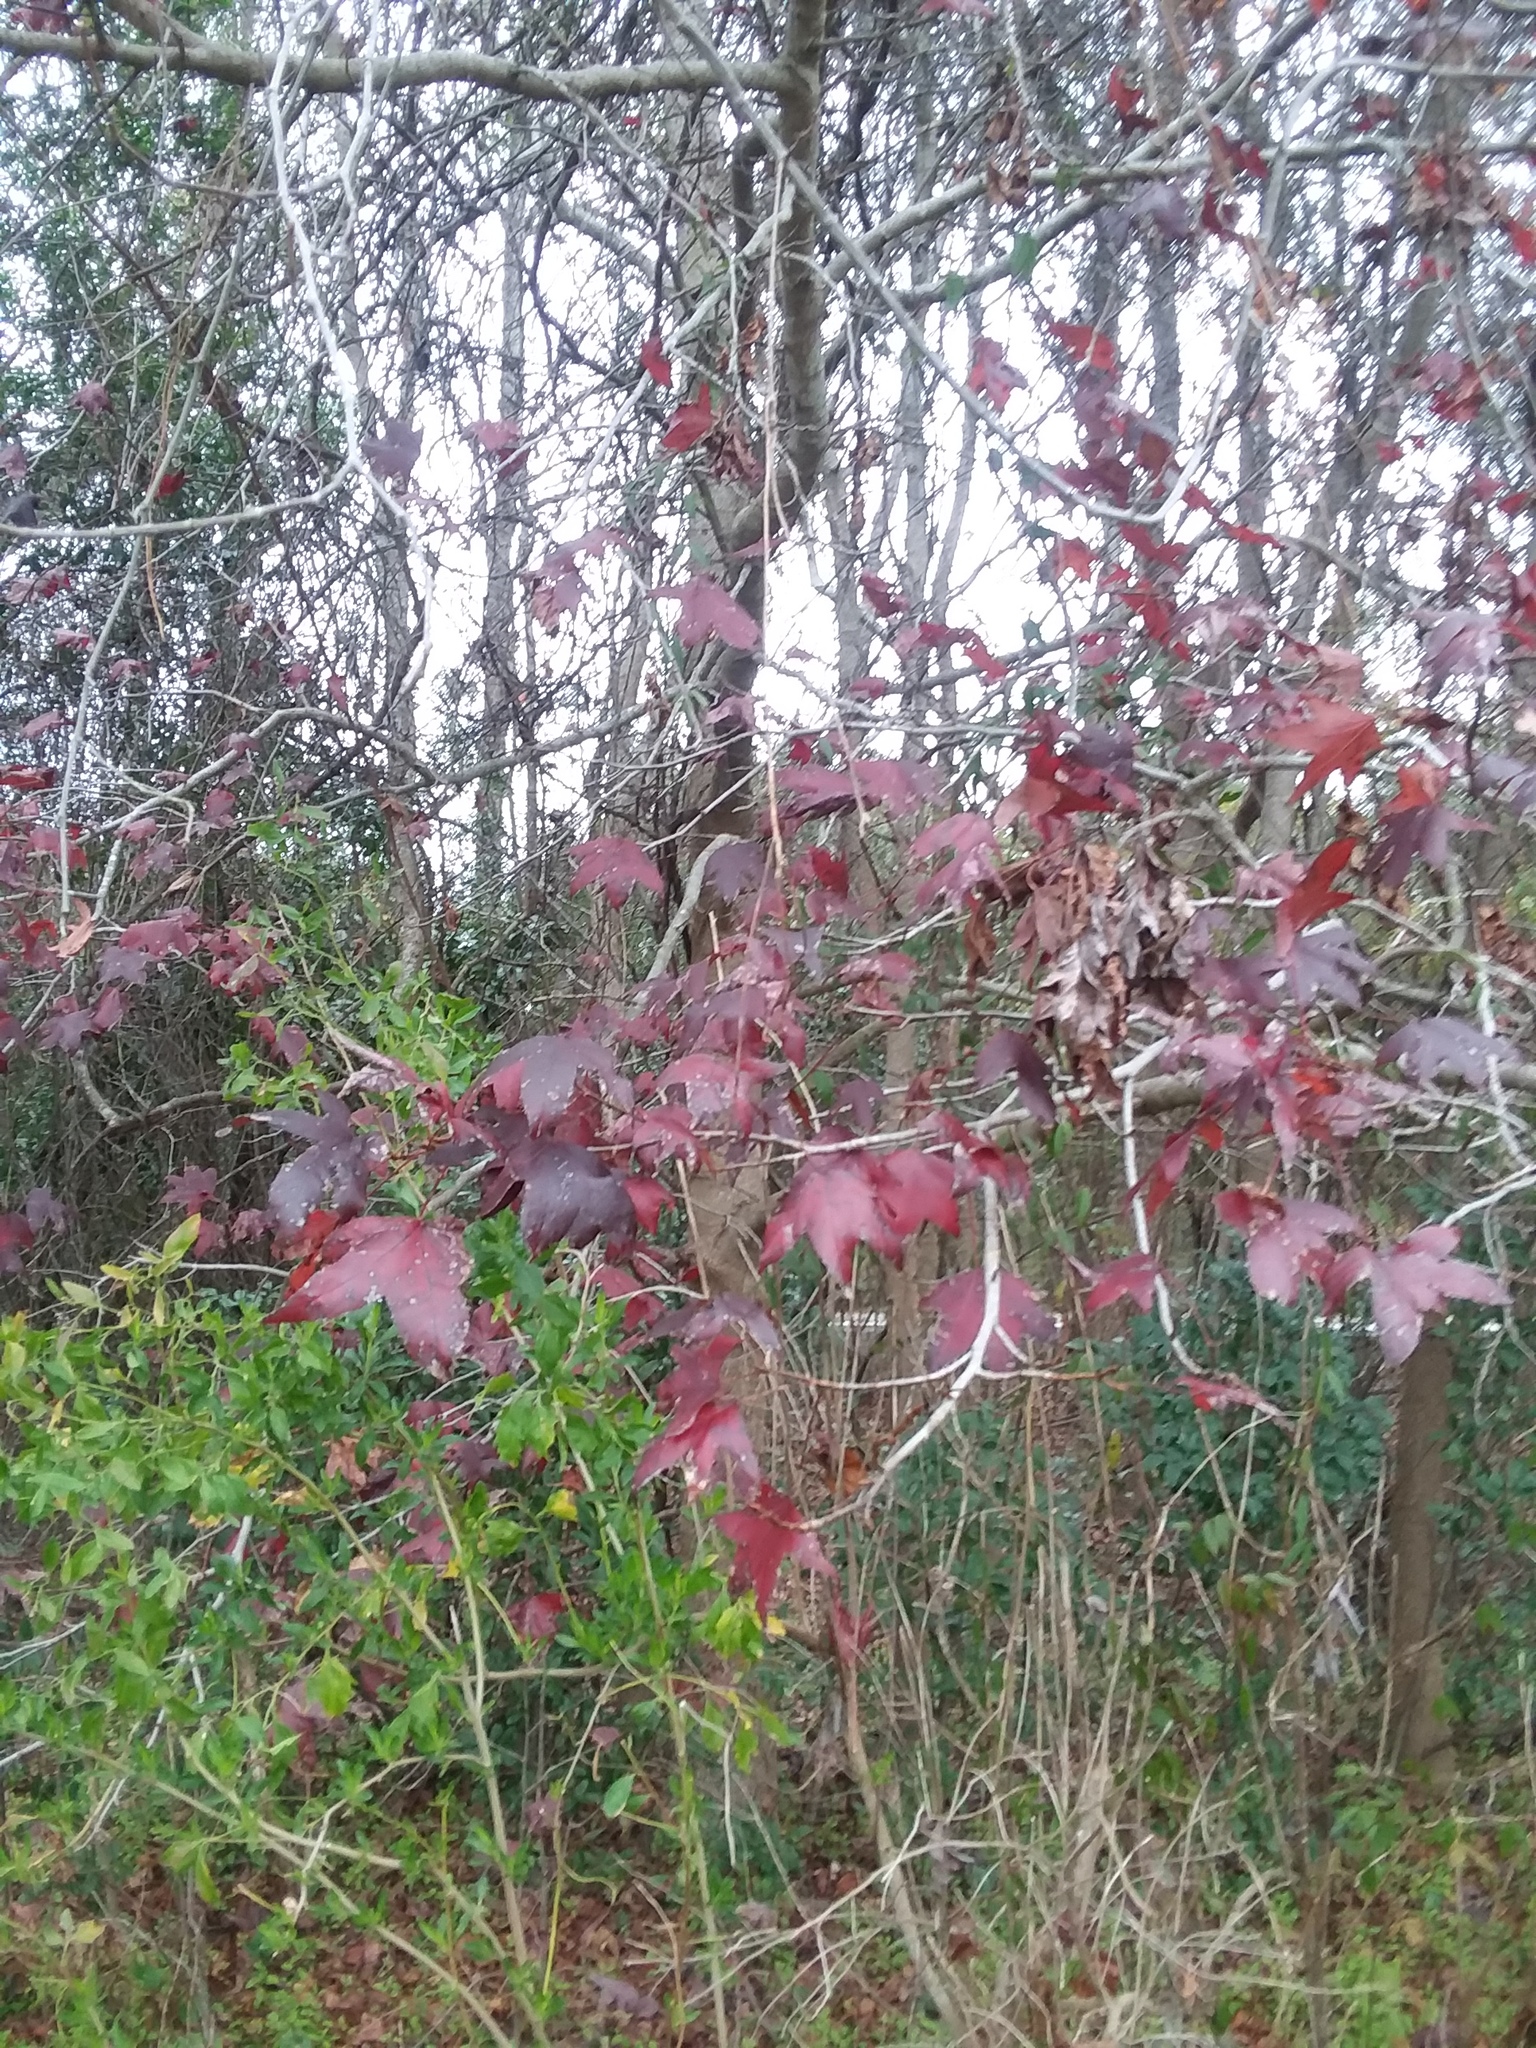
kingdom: Plantae
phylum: Tracheophyta
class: Magnoliopsida
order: Saxifragales
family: Altingiaceae
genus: Liquidambar
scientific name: Liquidambar styraciflua
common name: Sweet gum
